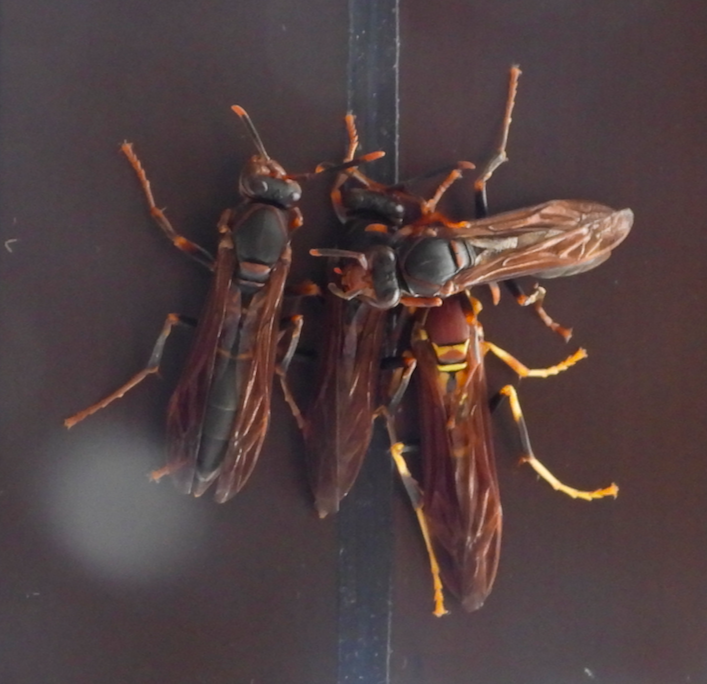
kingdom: Animalia
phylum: Arthropoda
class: Insecta
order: Hymenoptera
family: Eumenidae
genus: Polistes
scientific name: Polistes instabilis
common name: Unstable paper wasp
